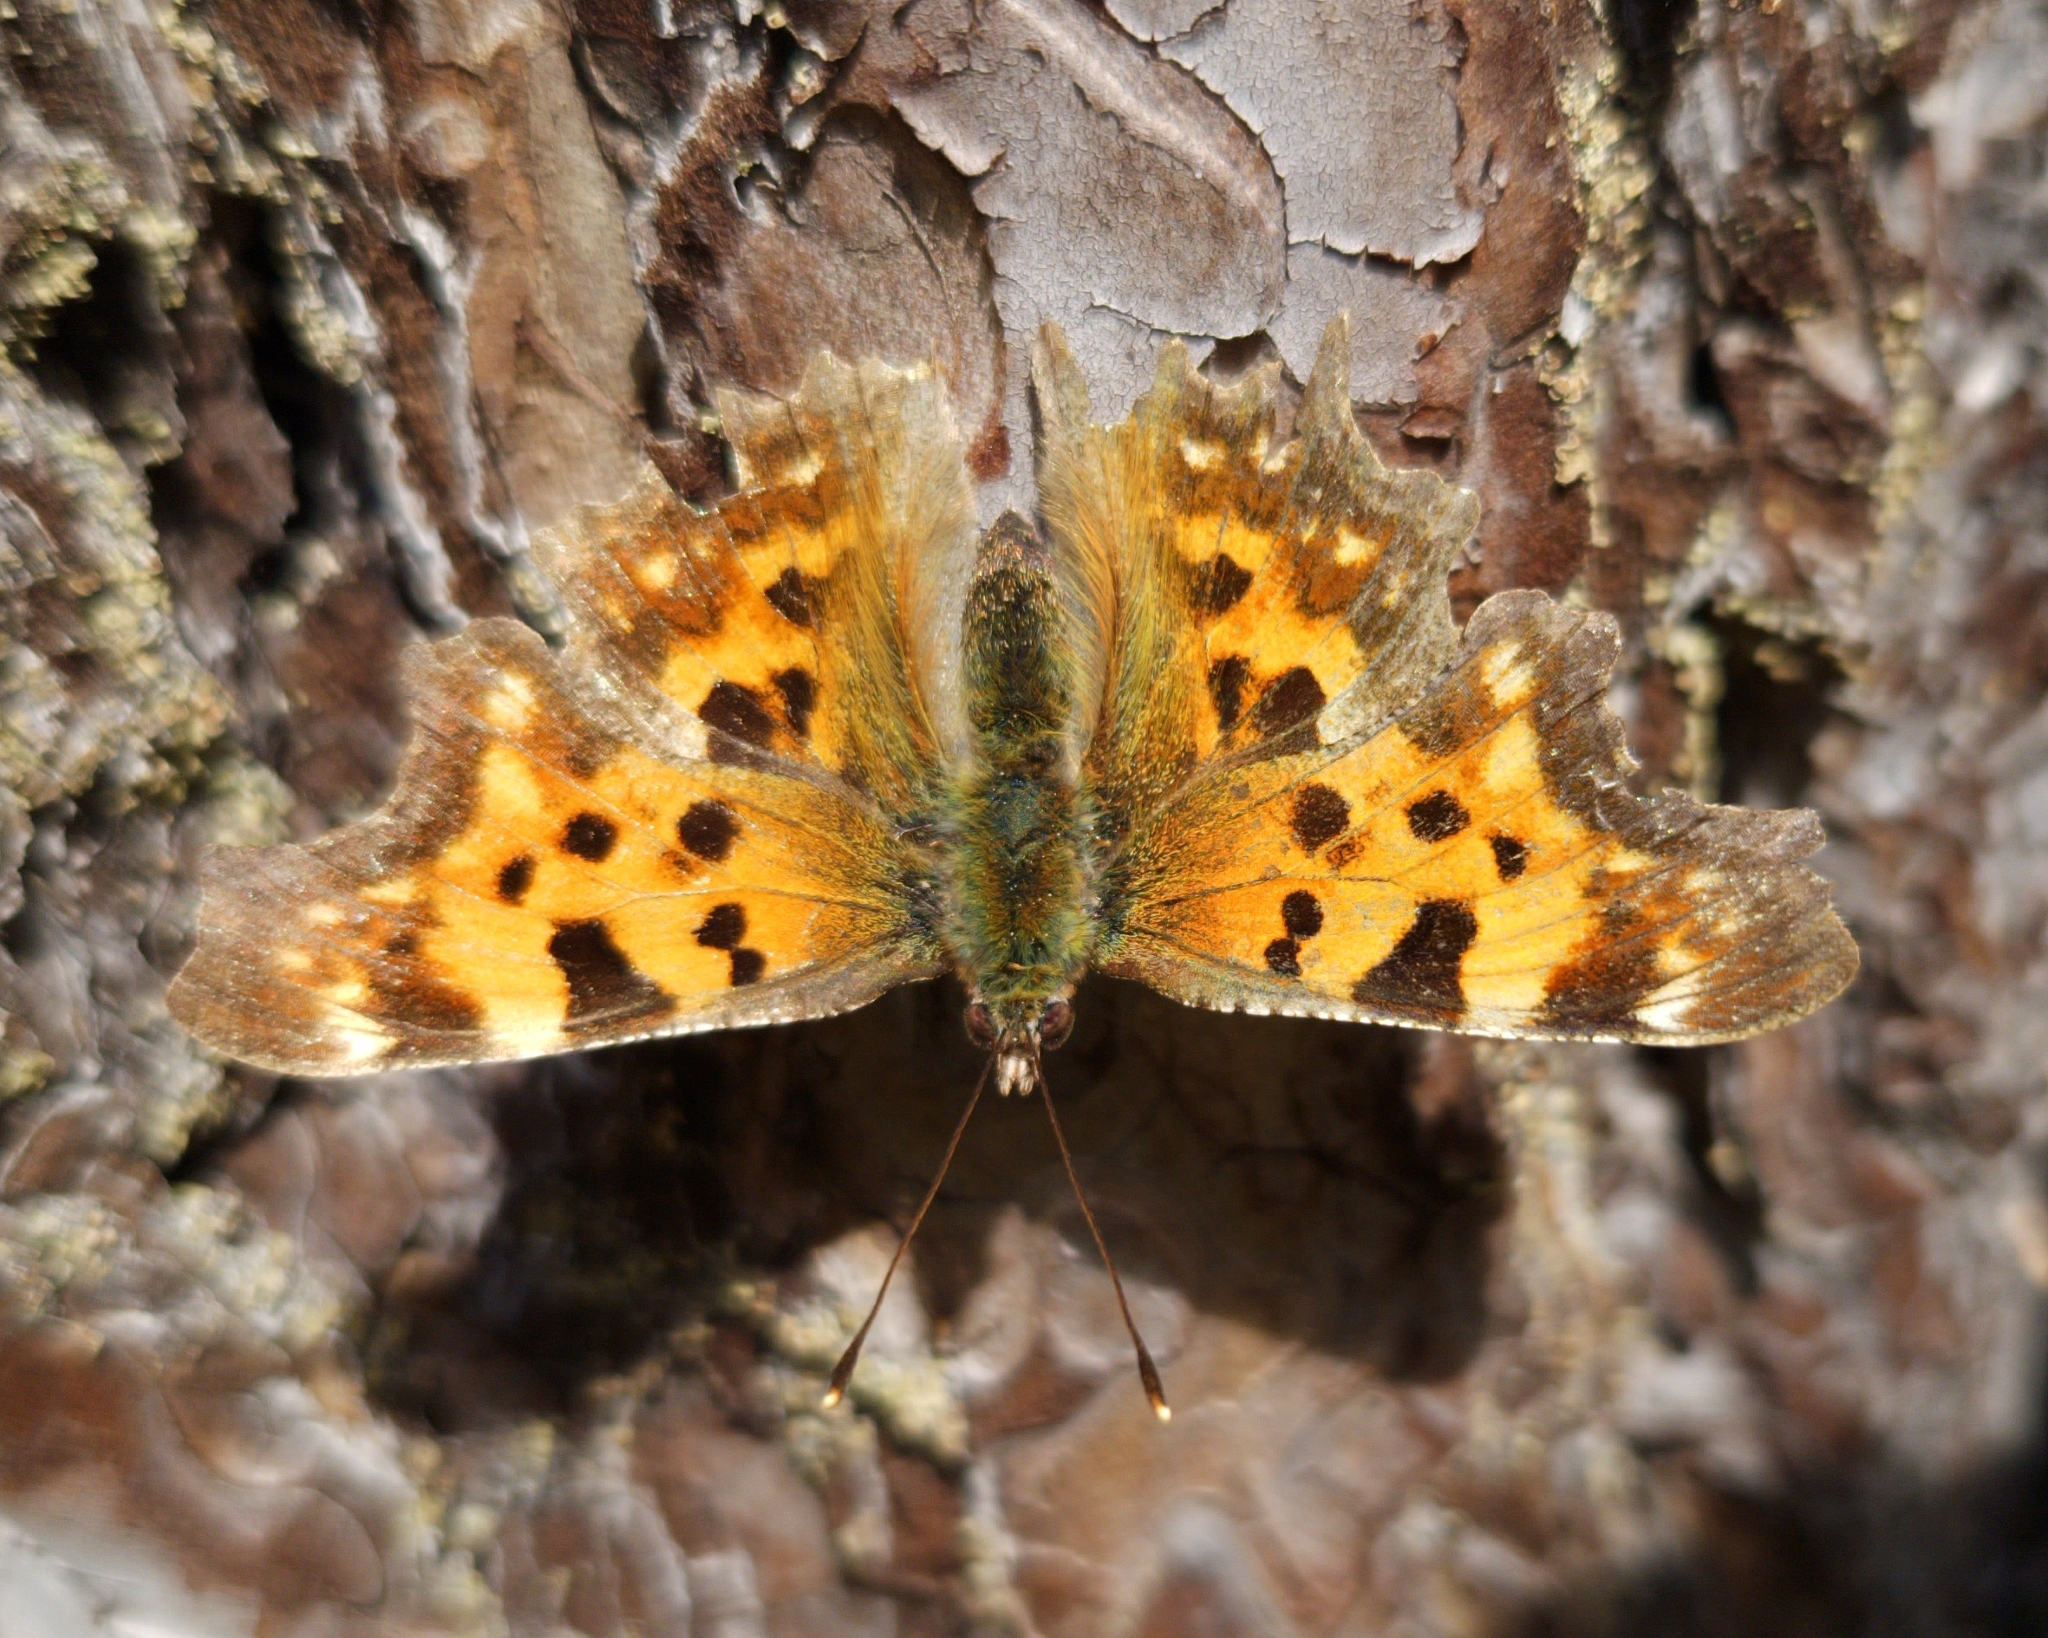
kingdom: Animalia
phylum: Arthropoda
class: Insecta
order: Lepidoptera
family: Nymphalidae
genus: Polygonia
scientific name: Polygonia c-album
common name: Comma
